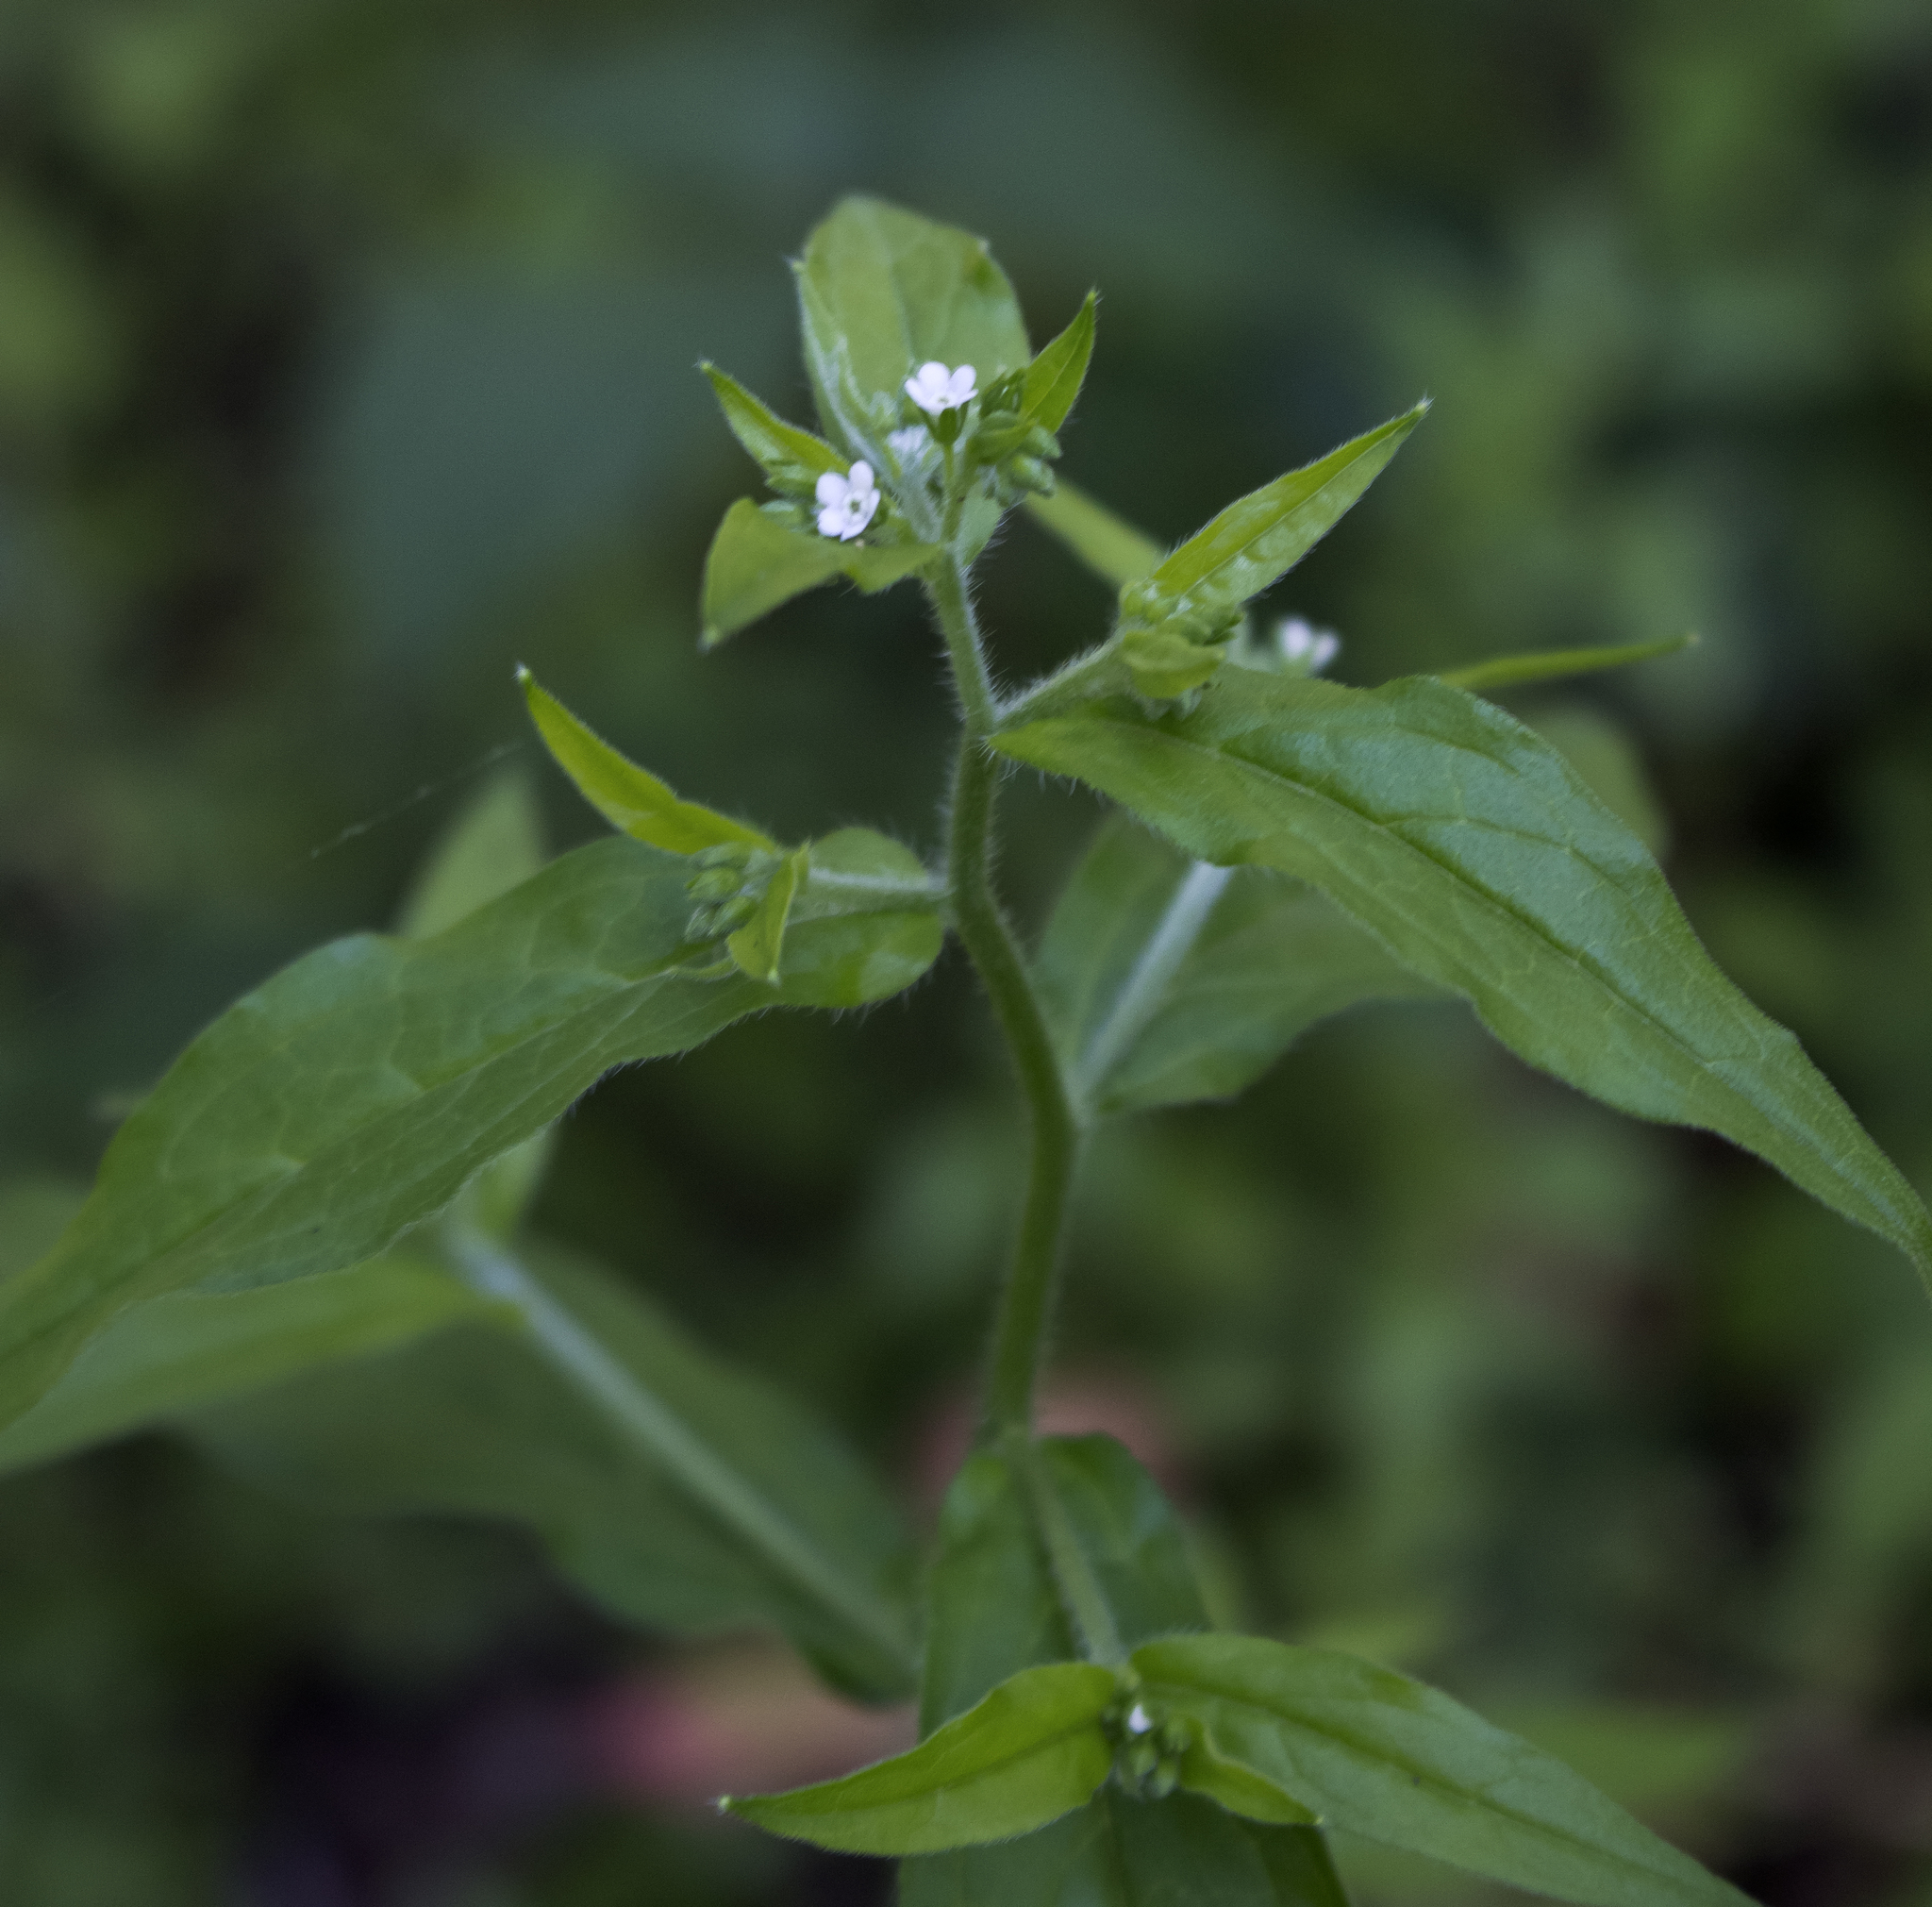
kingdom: Plantae
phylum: Tracheophyta
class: Magnoliopsida
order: Boraginales
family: Boraginaceae
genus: Hackelia
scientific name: Hackelia virginiana
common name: Beggar's-lice
